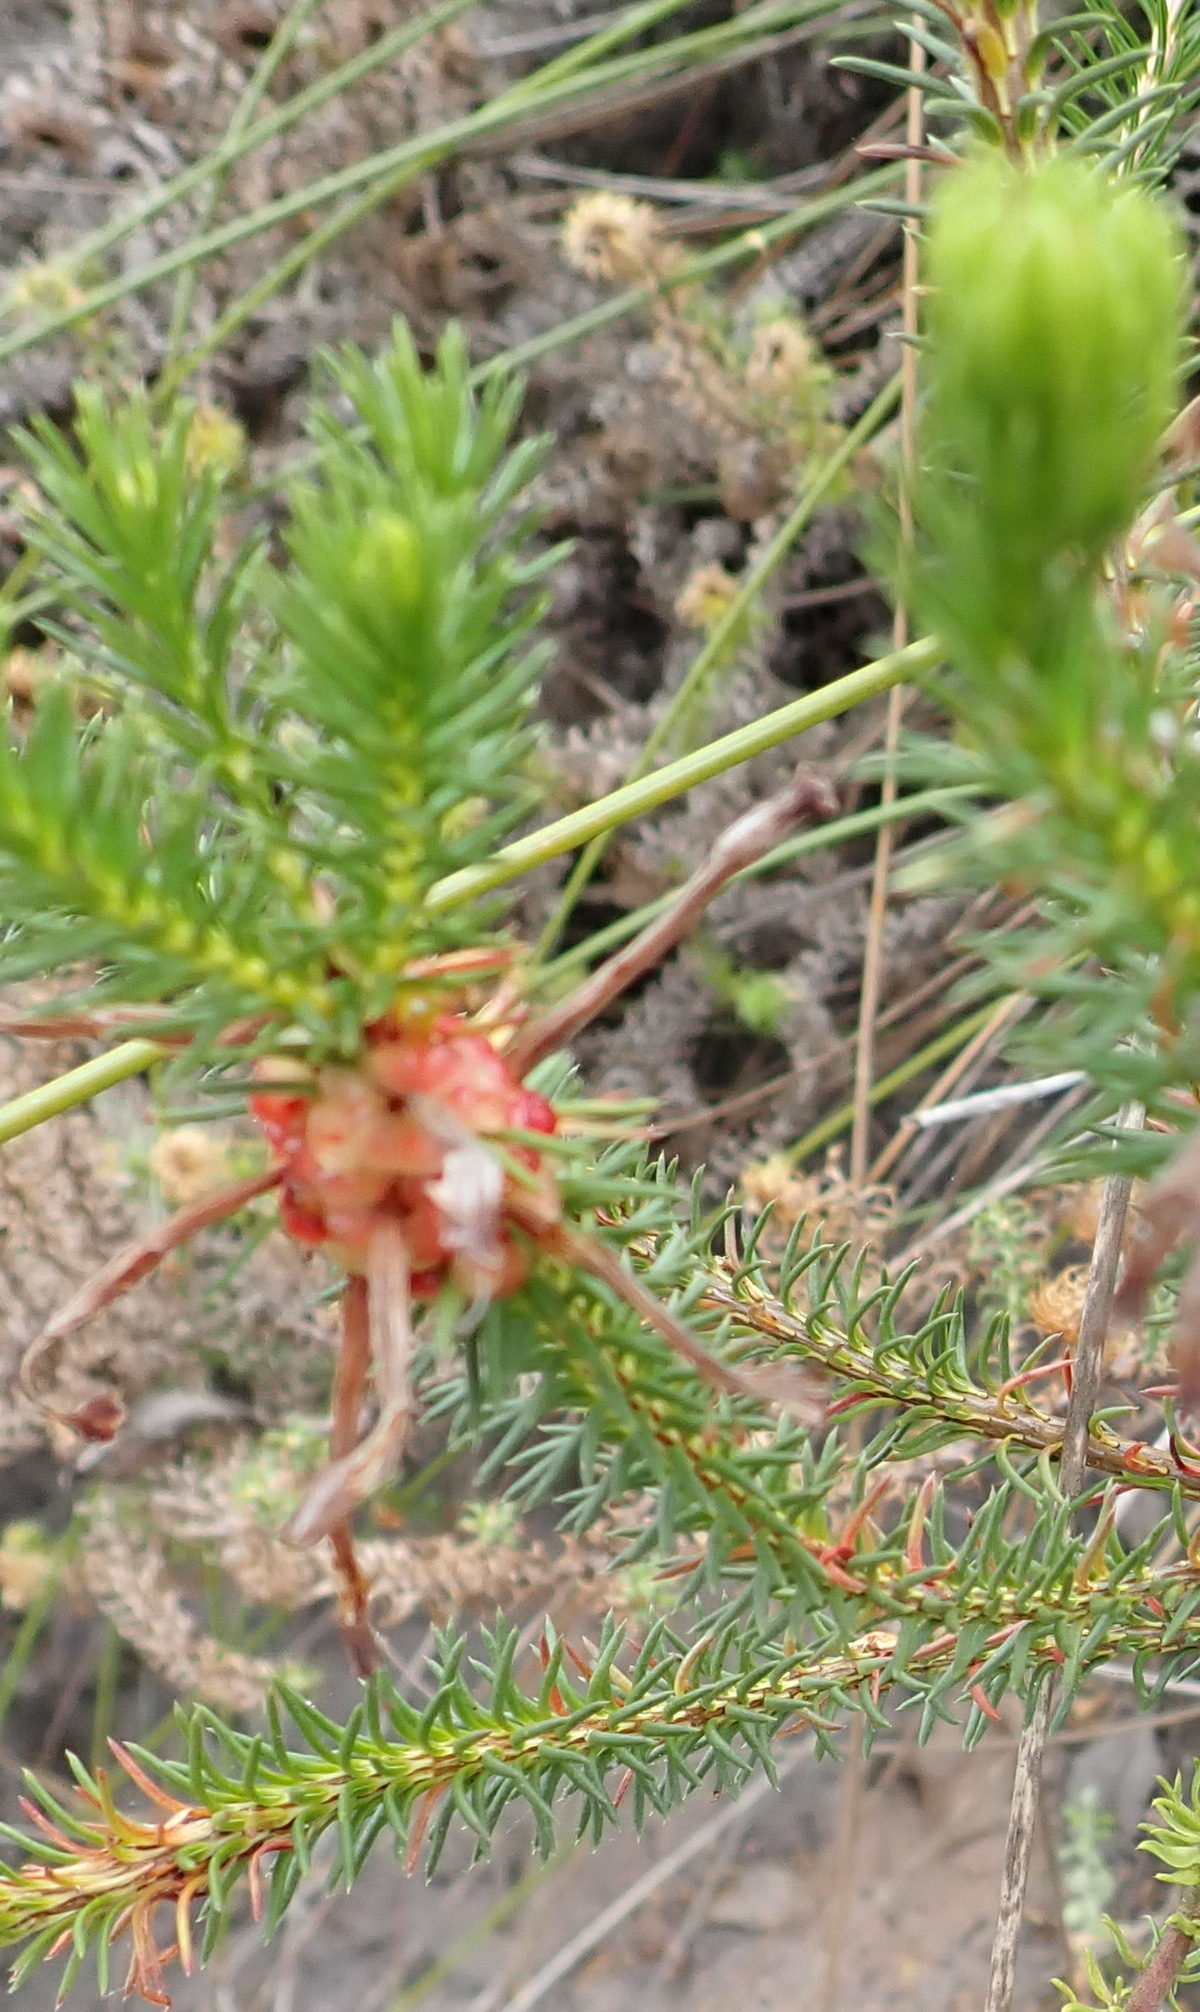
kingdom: Plantae
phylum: Tracheophyta
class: Magnoliopsida
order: Ericales
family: Ericaceae
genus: Erica
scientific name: Erica sessiliflora
